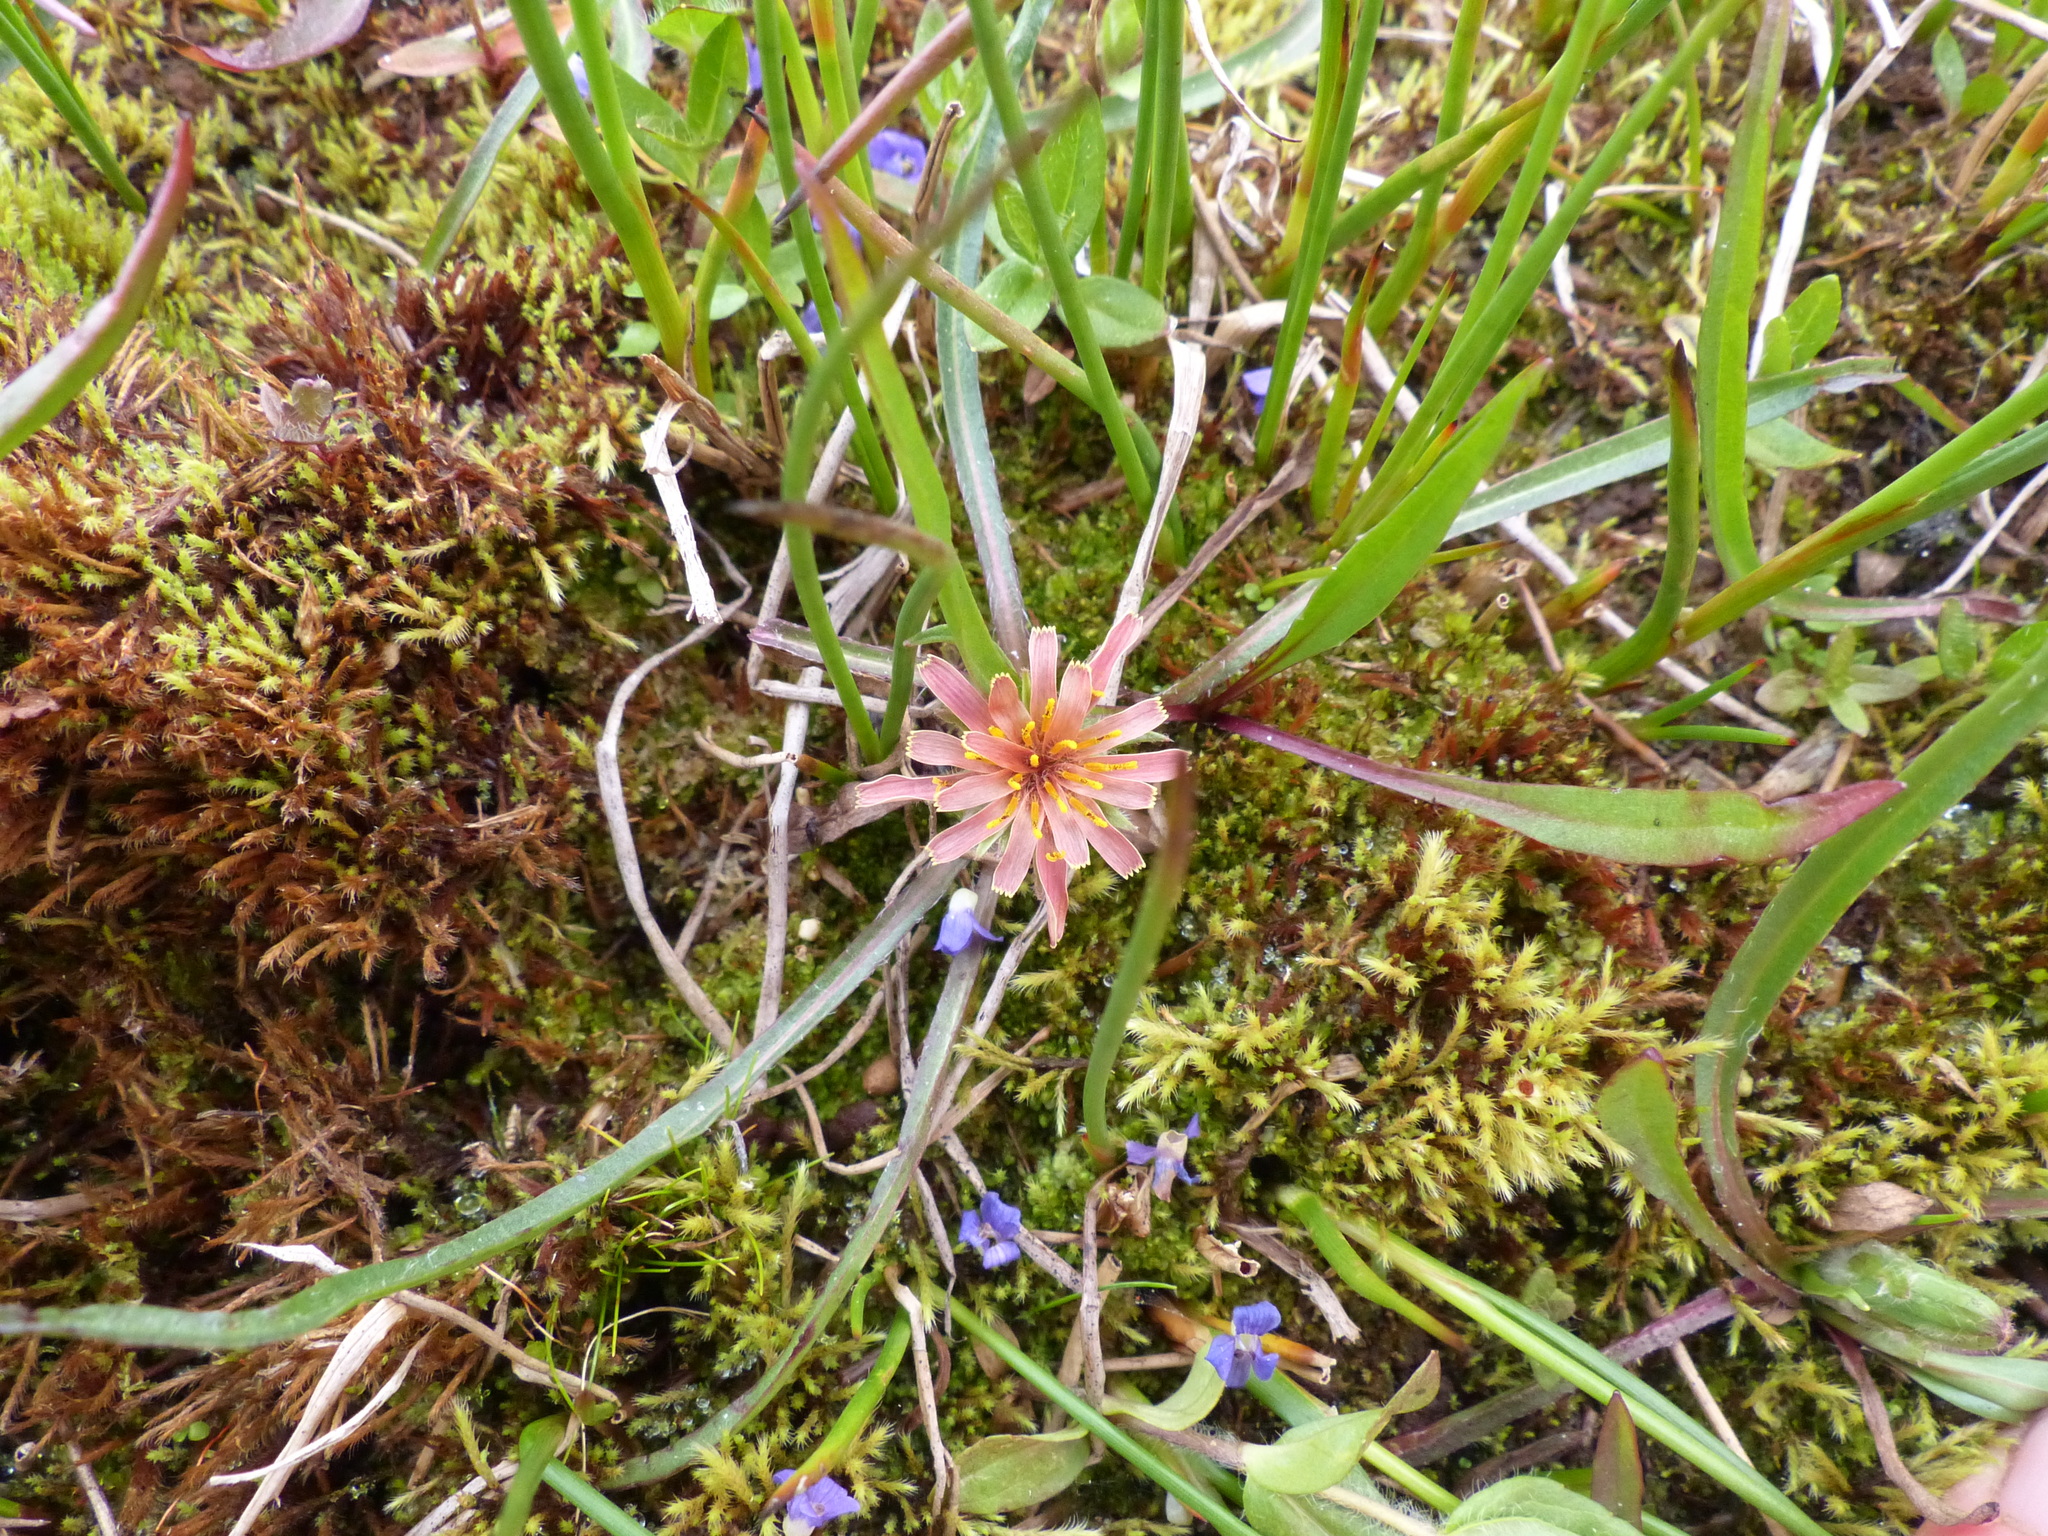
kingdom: Plantae
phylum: Tracheophyta
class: Magnoliopsida
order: Asterales
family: Asteraceae
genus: Agoseris
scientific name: Agoseris aurantiaca
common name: Mountain agoseris
